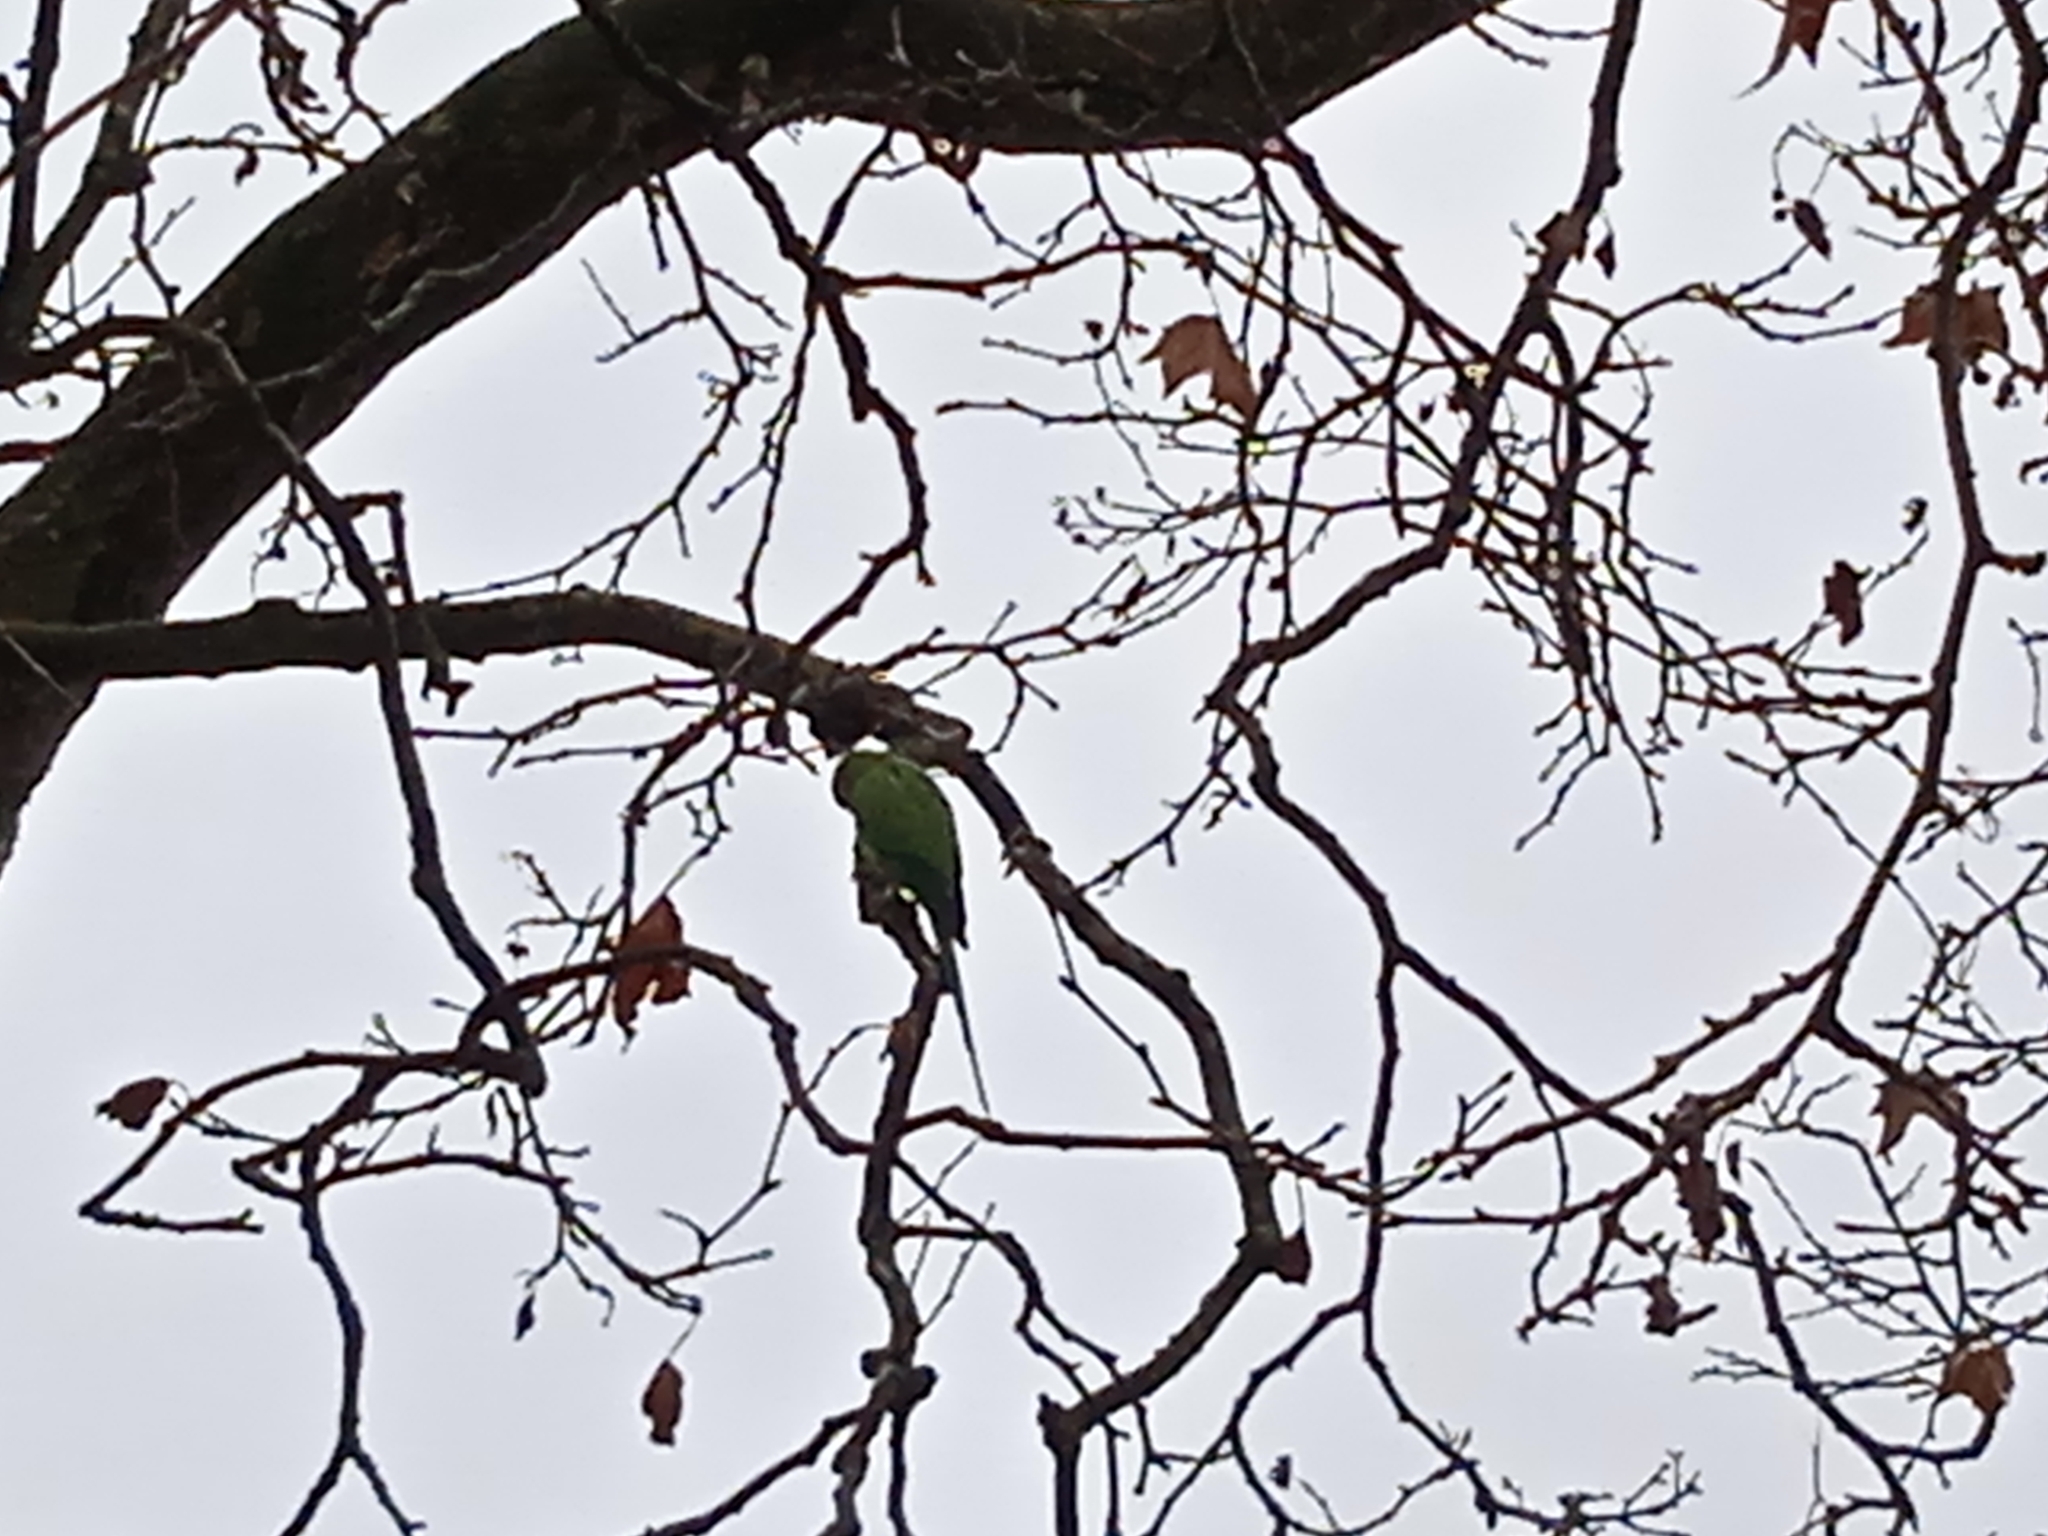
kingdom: Animalia
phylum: Chordata
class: Aves
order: Psittaciformes
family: Psittacidae
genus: Psittacula
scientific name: Psittacula krameri
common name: Rose-ringed parakeet
